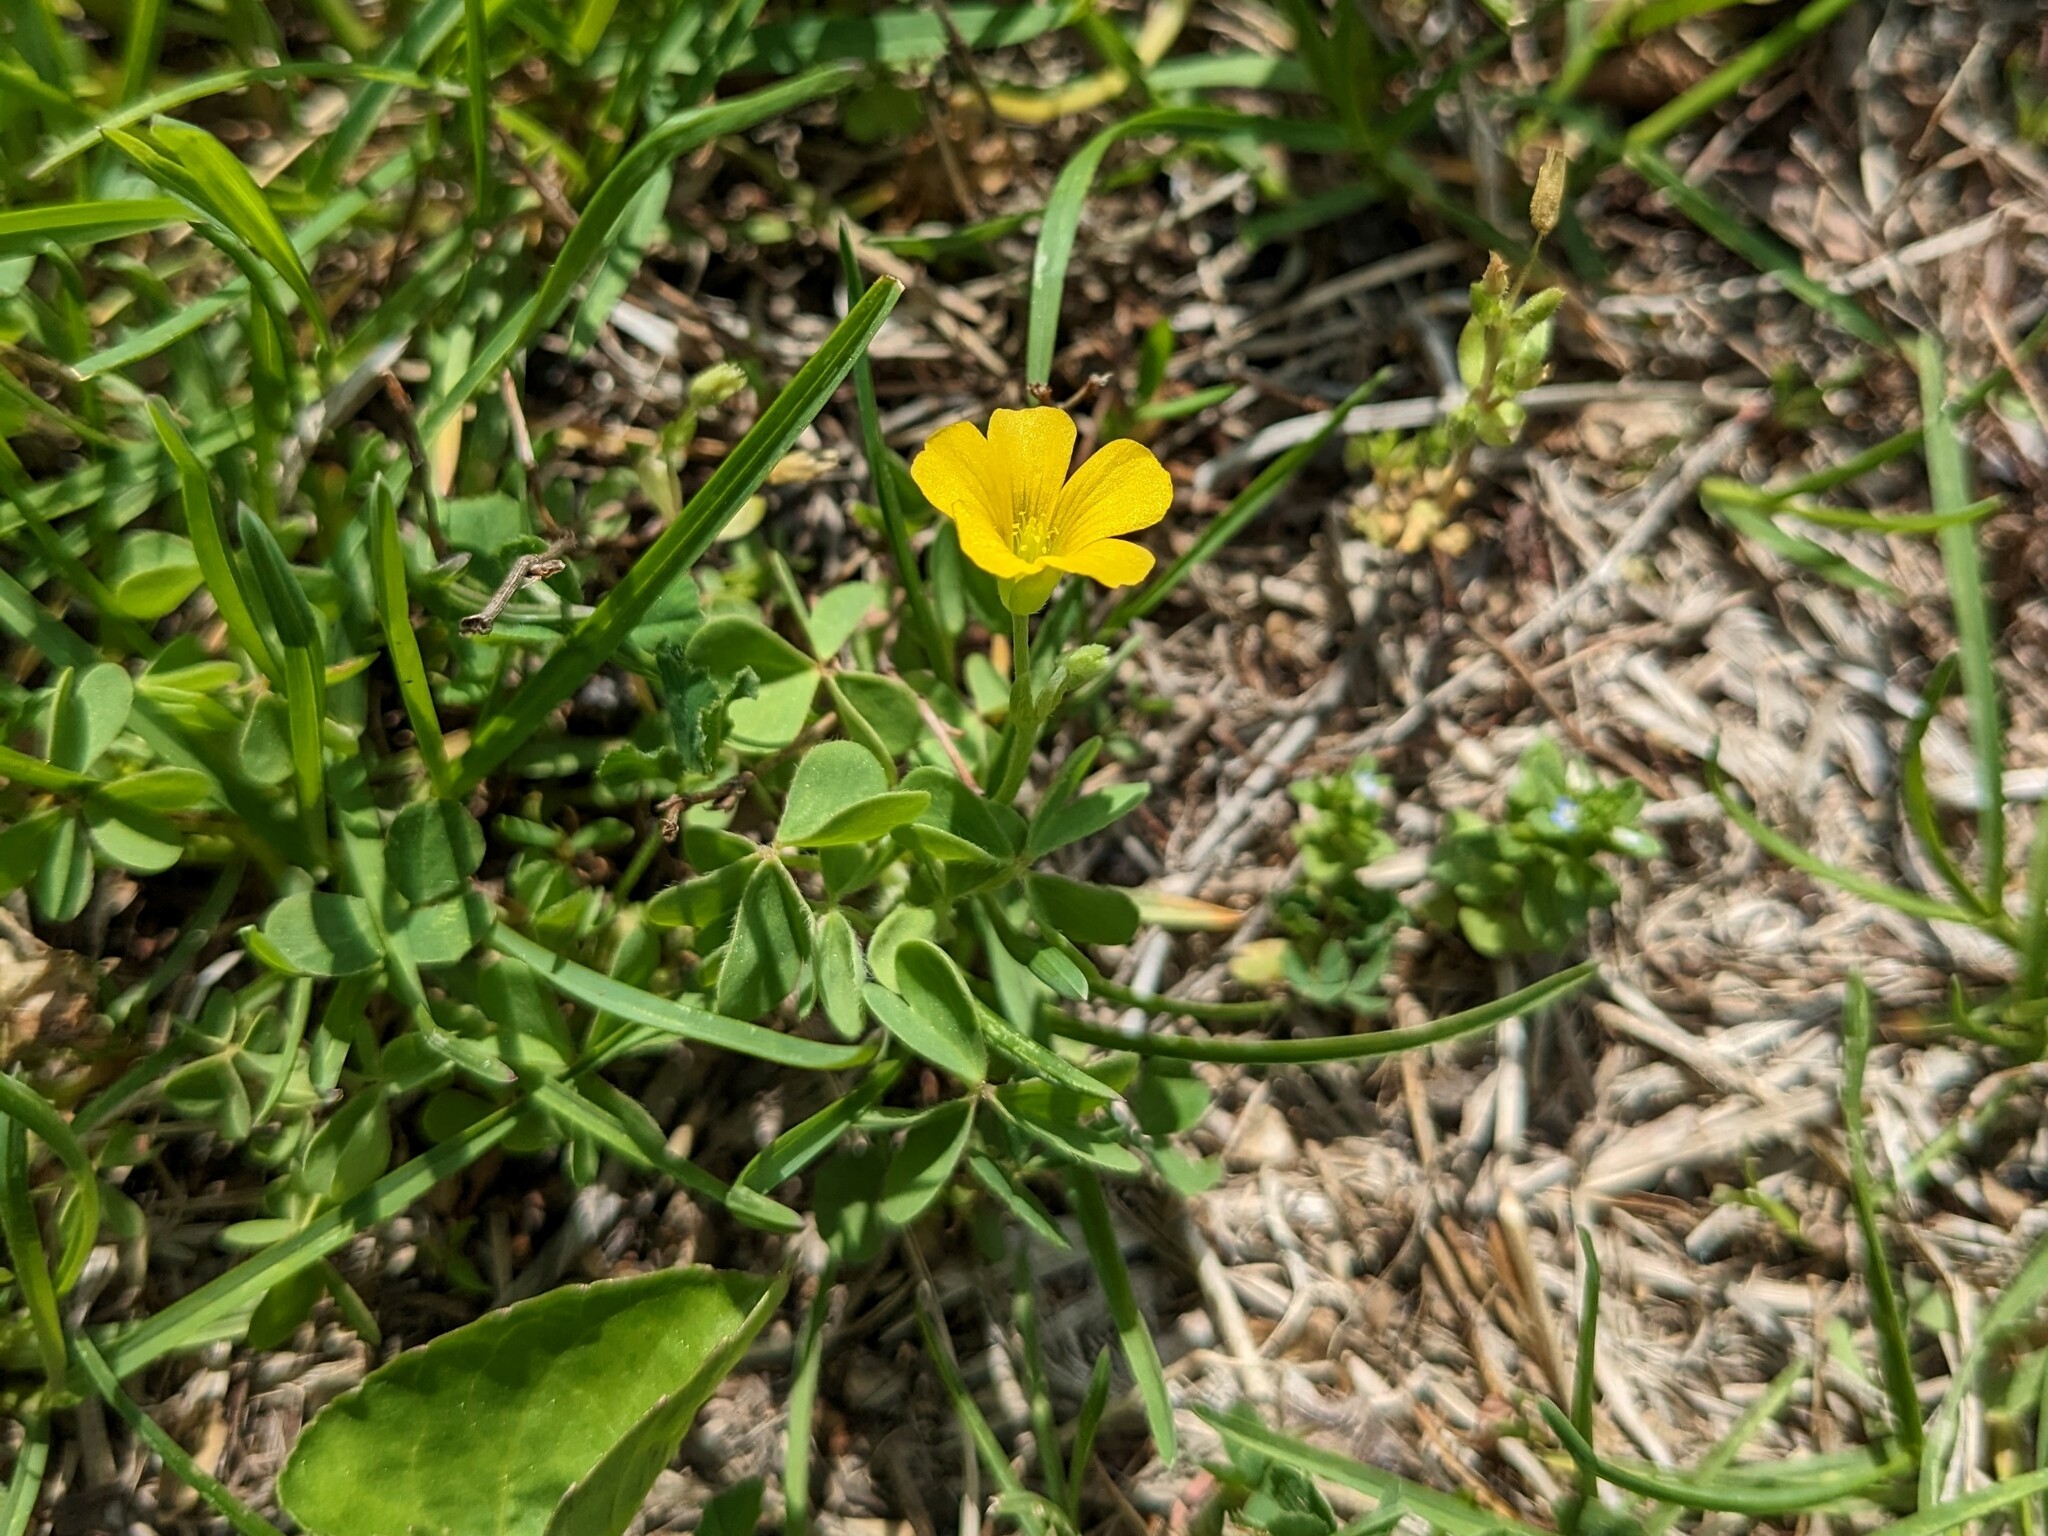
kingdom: Plantae
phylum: Tracheophyta
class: Magnoliopsida
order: Oxalidales
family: Oxalidaceae
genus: Oxalis
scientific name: Oxalis dillenii
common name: Sussex yellow-sorrel
